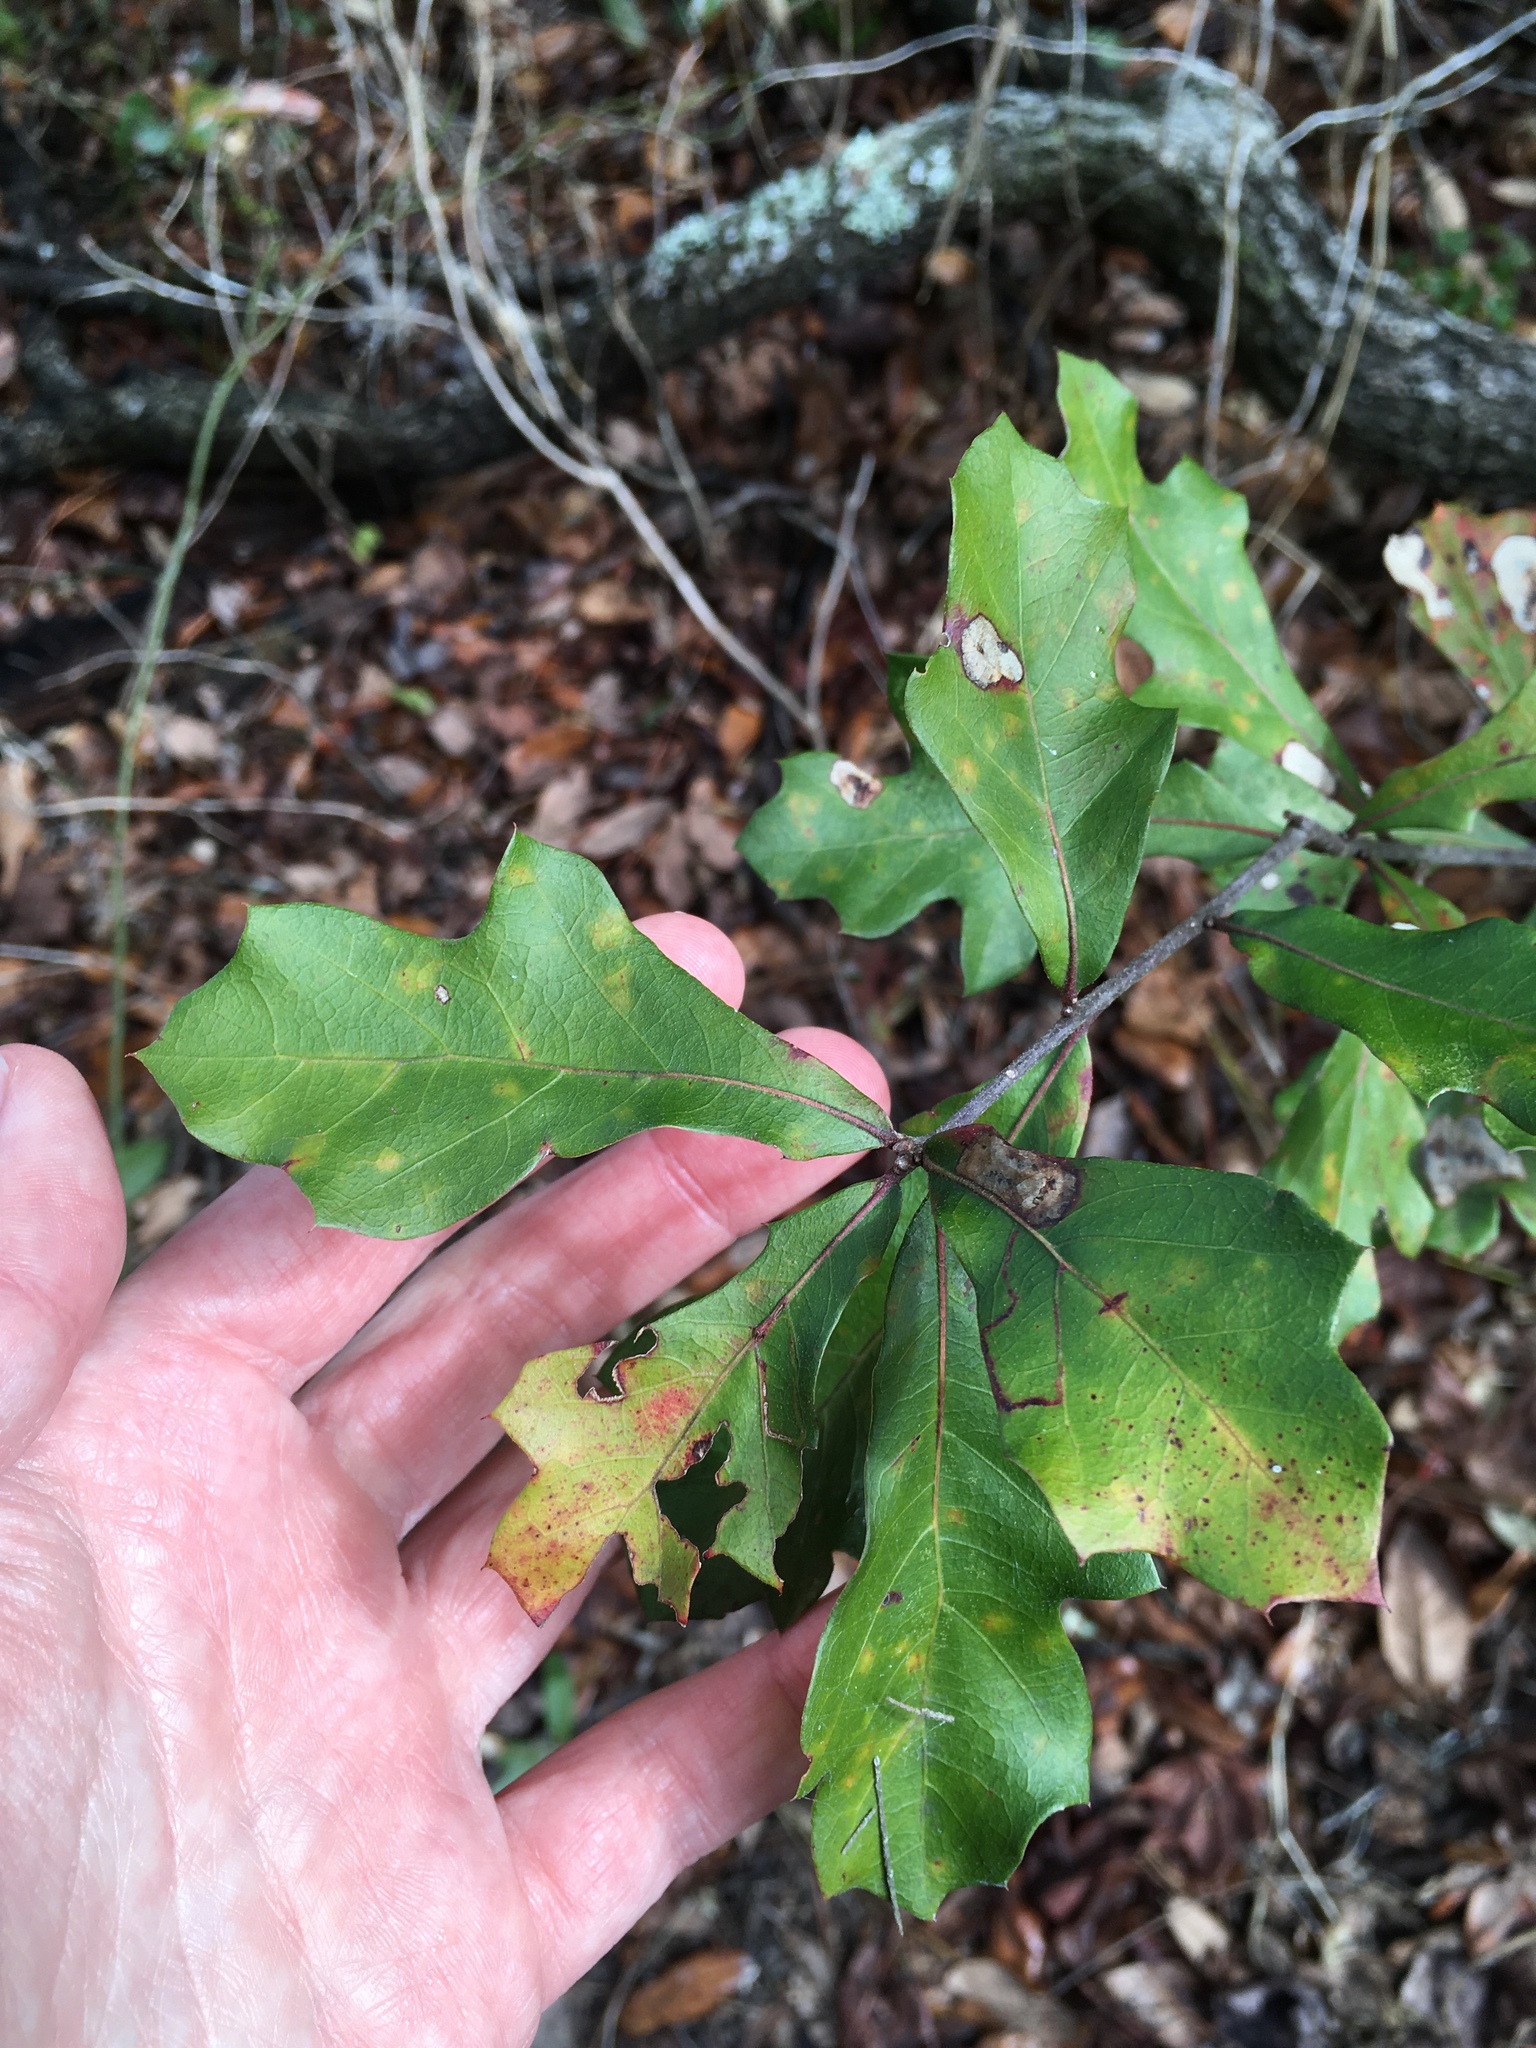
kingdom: Plantae
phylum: Tracheophyta
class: Magnoliopsida
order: Fagales
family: Fagaceae
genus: Quercus
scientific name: Quercus nigra
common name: Water oak
